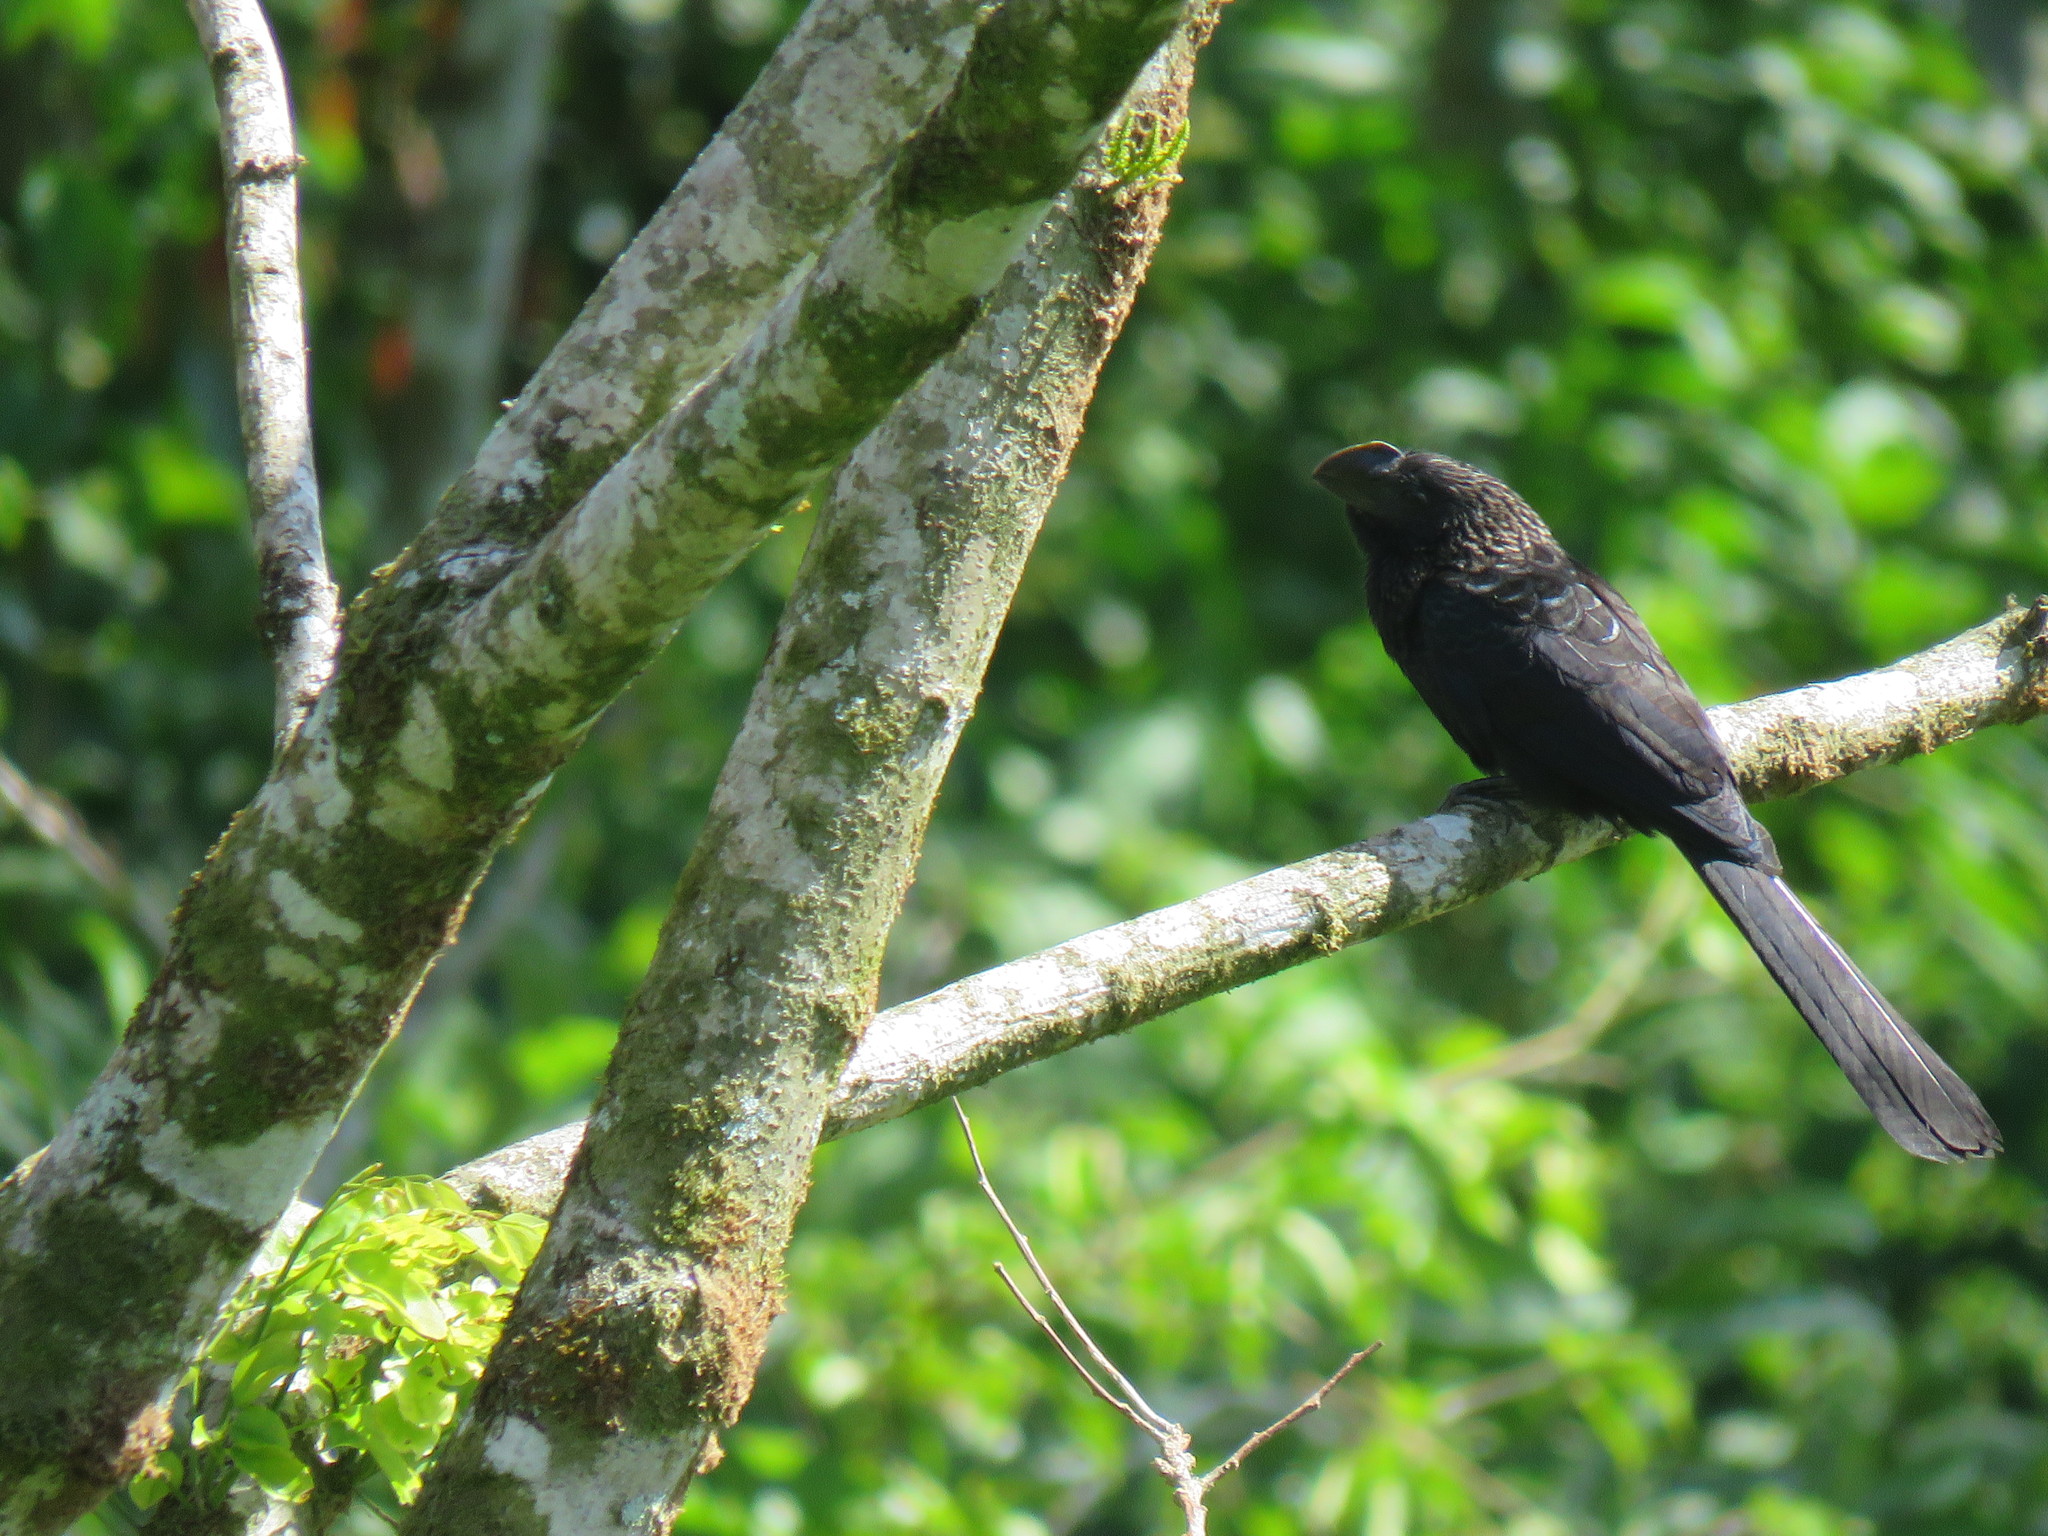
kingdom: Animalia
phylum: Chordata
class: Aves
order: Cuculiformes
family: Cuculidae
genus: Crotophaga
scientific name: Crotophaga ani
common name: Smooth-billed ani
